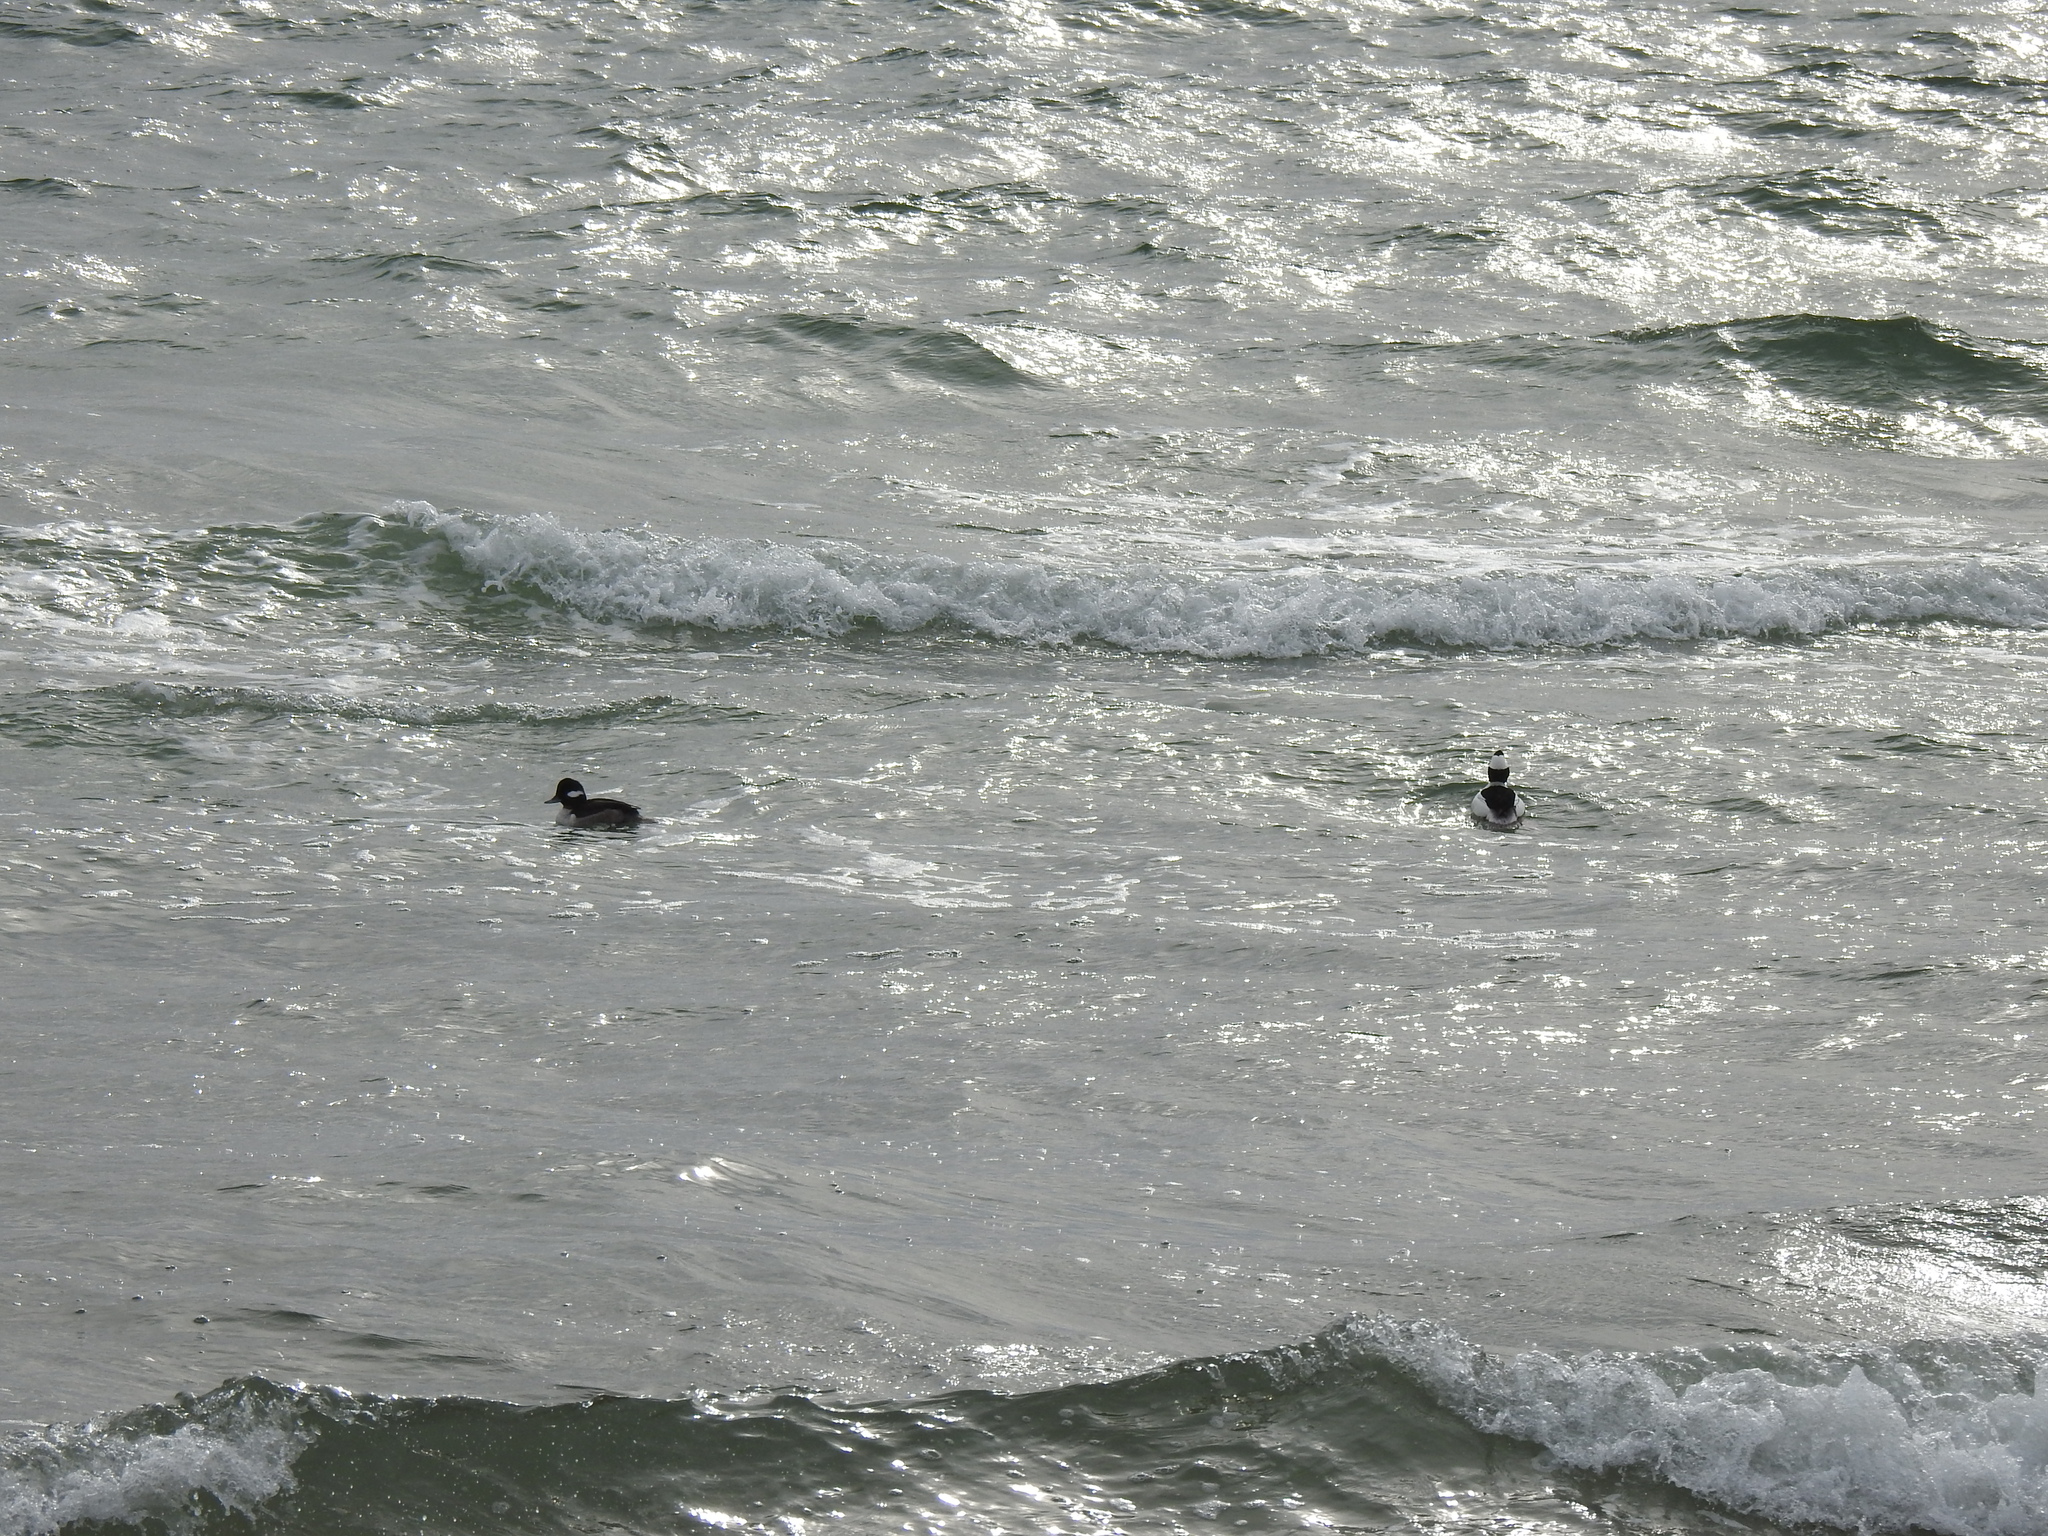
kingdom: Animalia
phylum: Chordata
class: Aves
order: Anseriformes
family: Anatidae
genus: Bucephala
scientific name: Bucephala albeola
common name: Bufflehead
